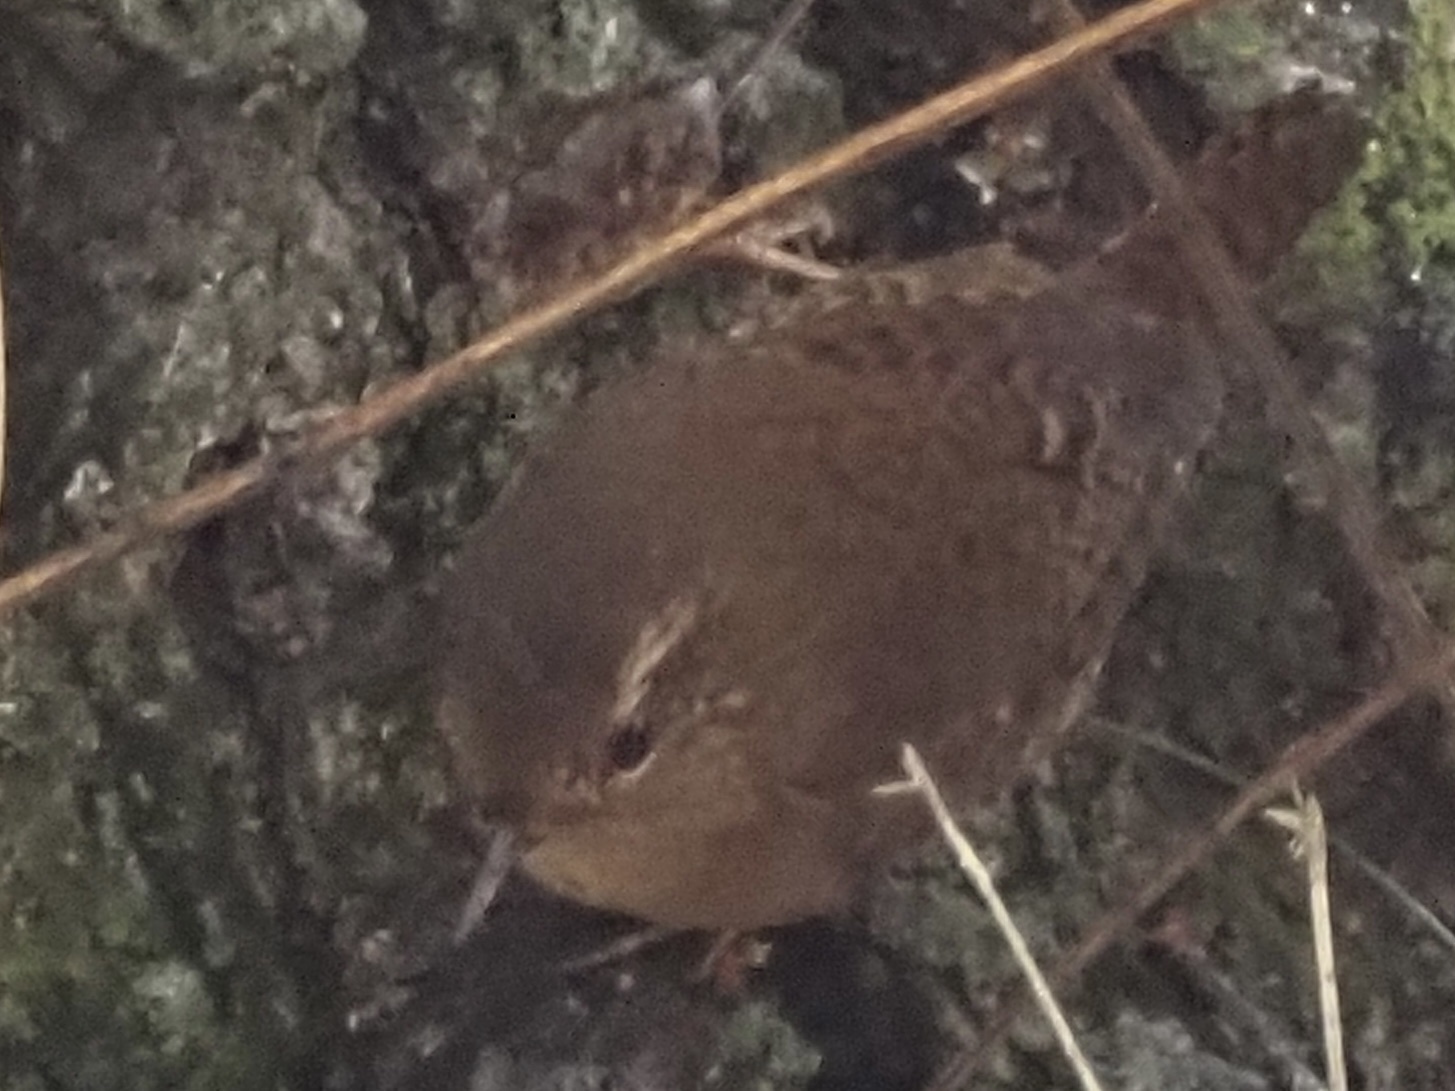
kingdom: Animalia
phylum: Chordata
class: Aves
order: Passeriformes
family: Troglodytidae
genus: Troglodytes
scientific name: Troglodytes pacificus
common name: Pacific wren
